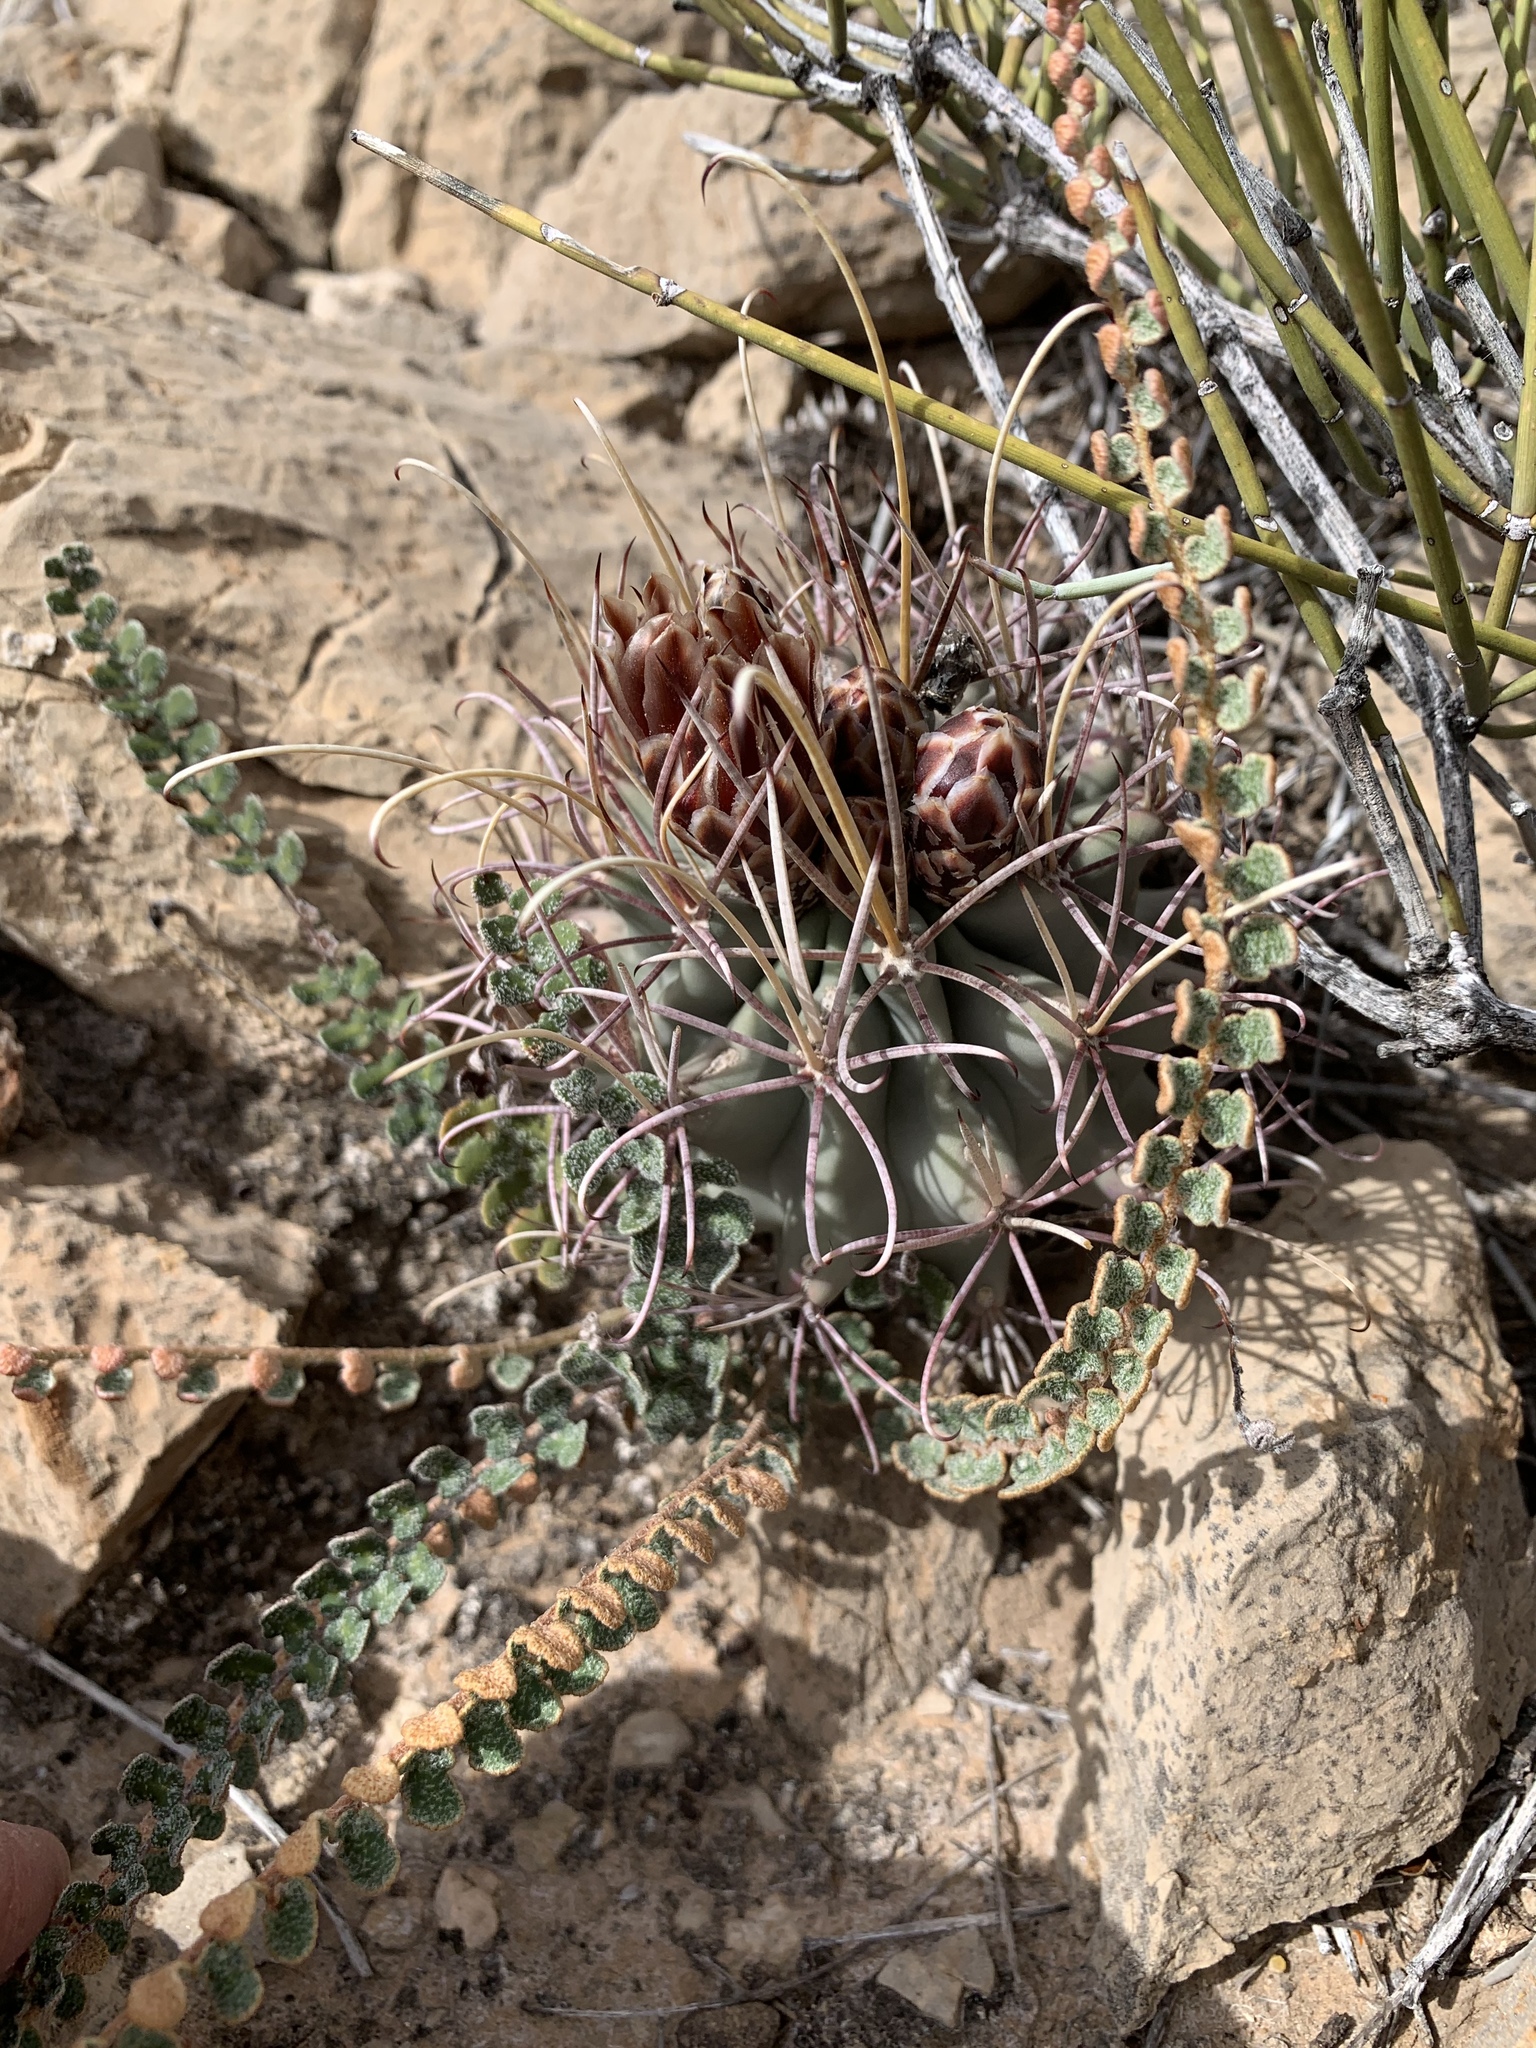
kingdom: Plantae
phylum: Tracheophyta
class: Polypodiopsida
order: Polypodiales
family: Pteridaceae
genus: Astrolepis
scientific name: Astrolepis cochisensis
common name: Scaly cloak fern
